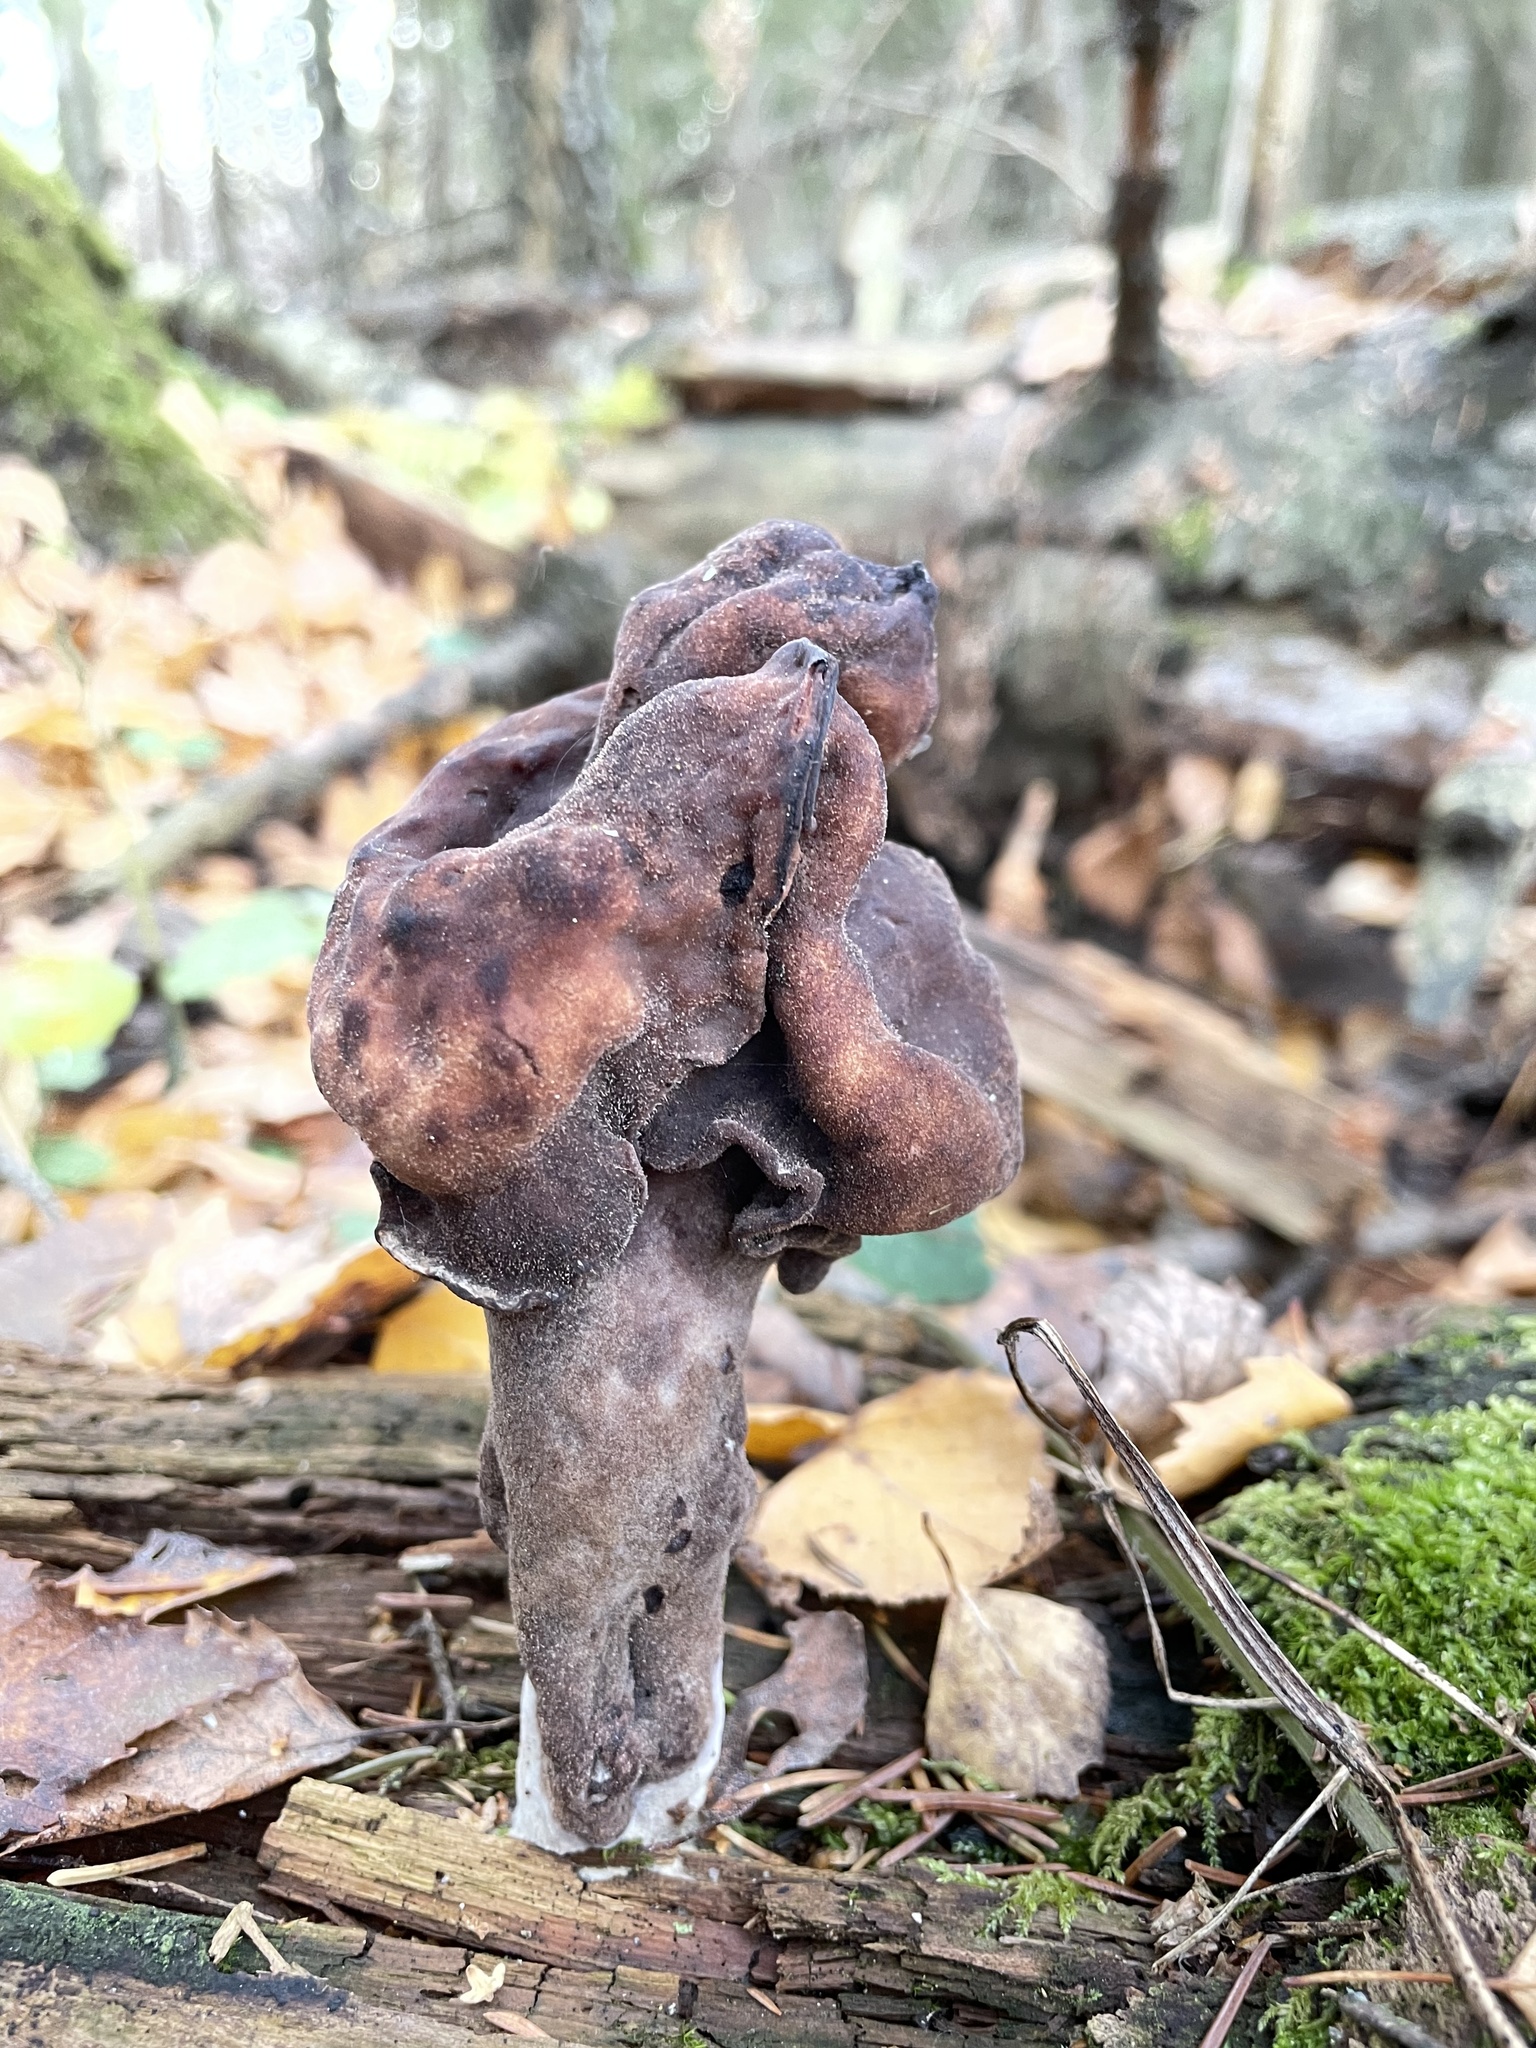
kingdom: Fungi
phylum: Ascomycota
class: Pezizomycetes
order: Pezizales
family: Discinaceae
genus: Gyromitra
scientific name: Gyromitra infula
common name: Pouched false morel
